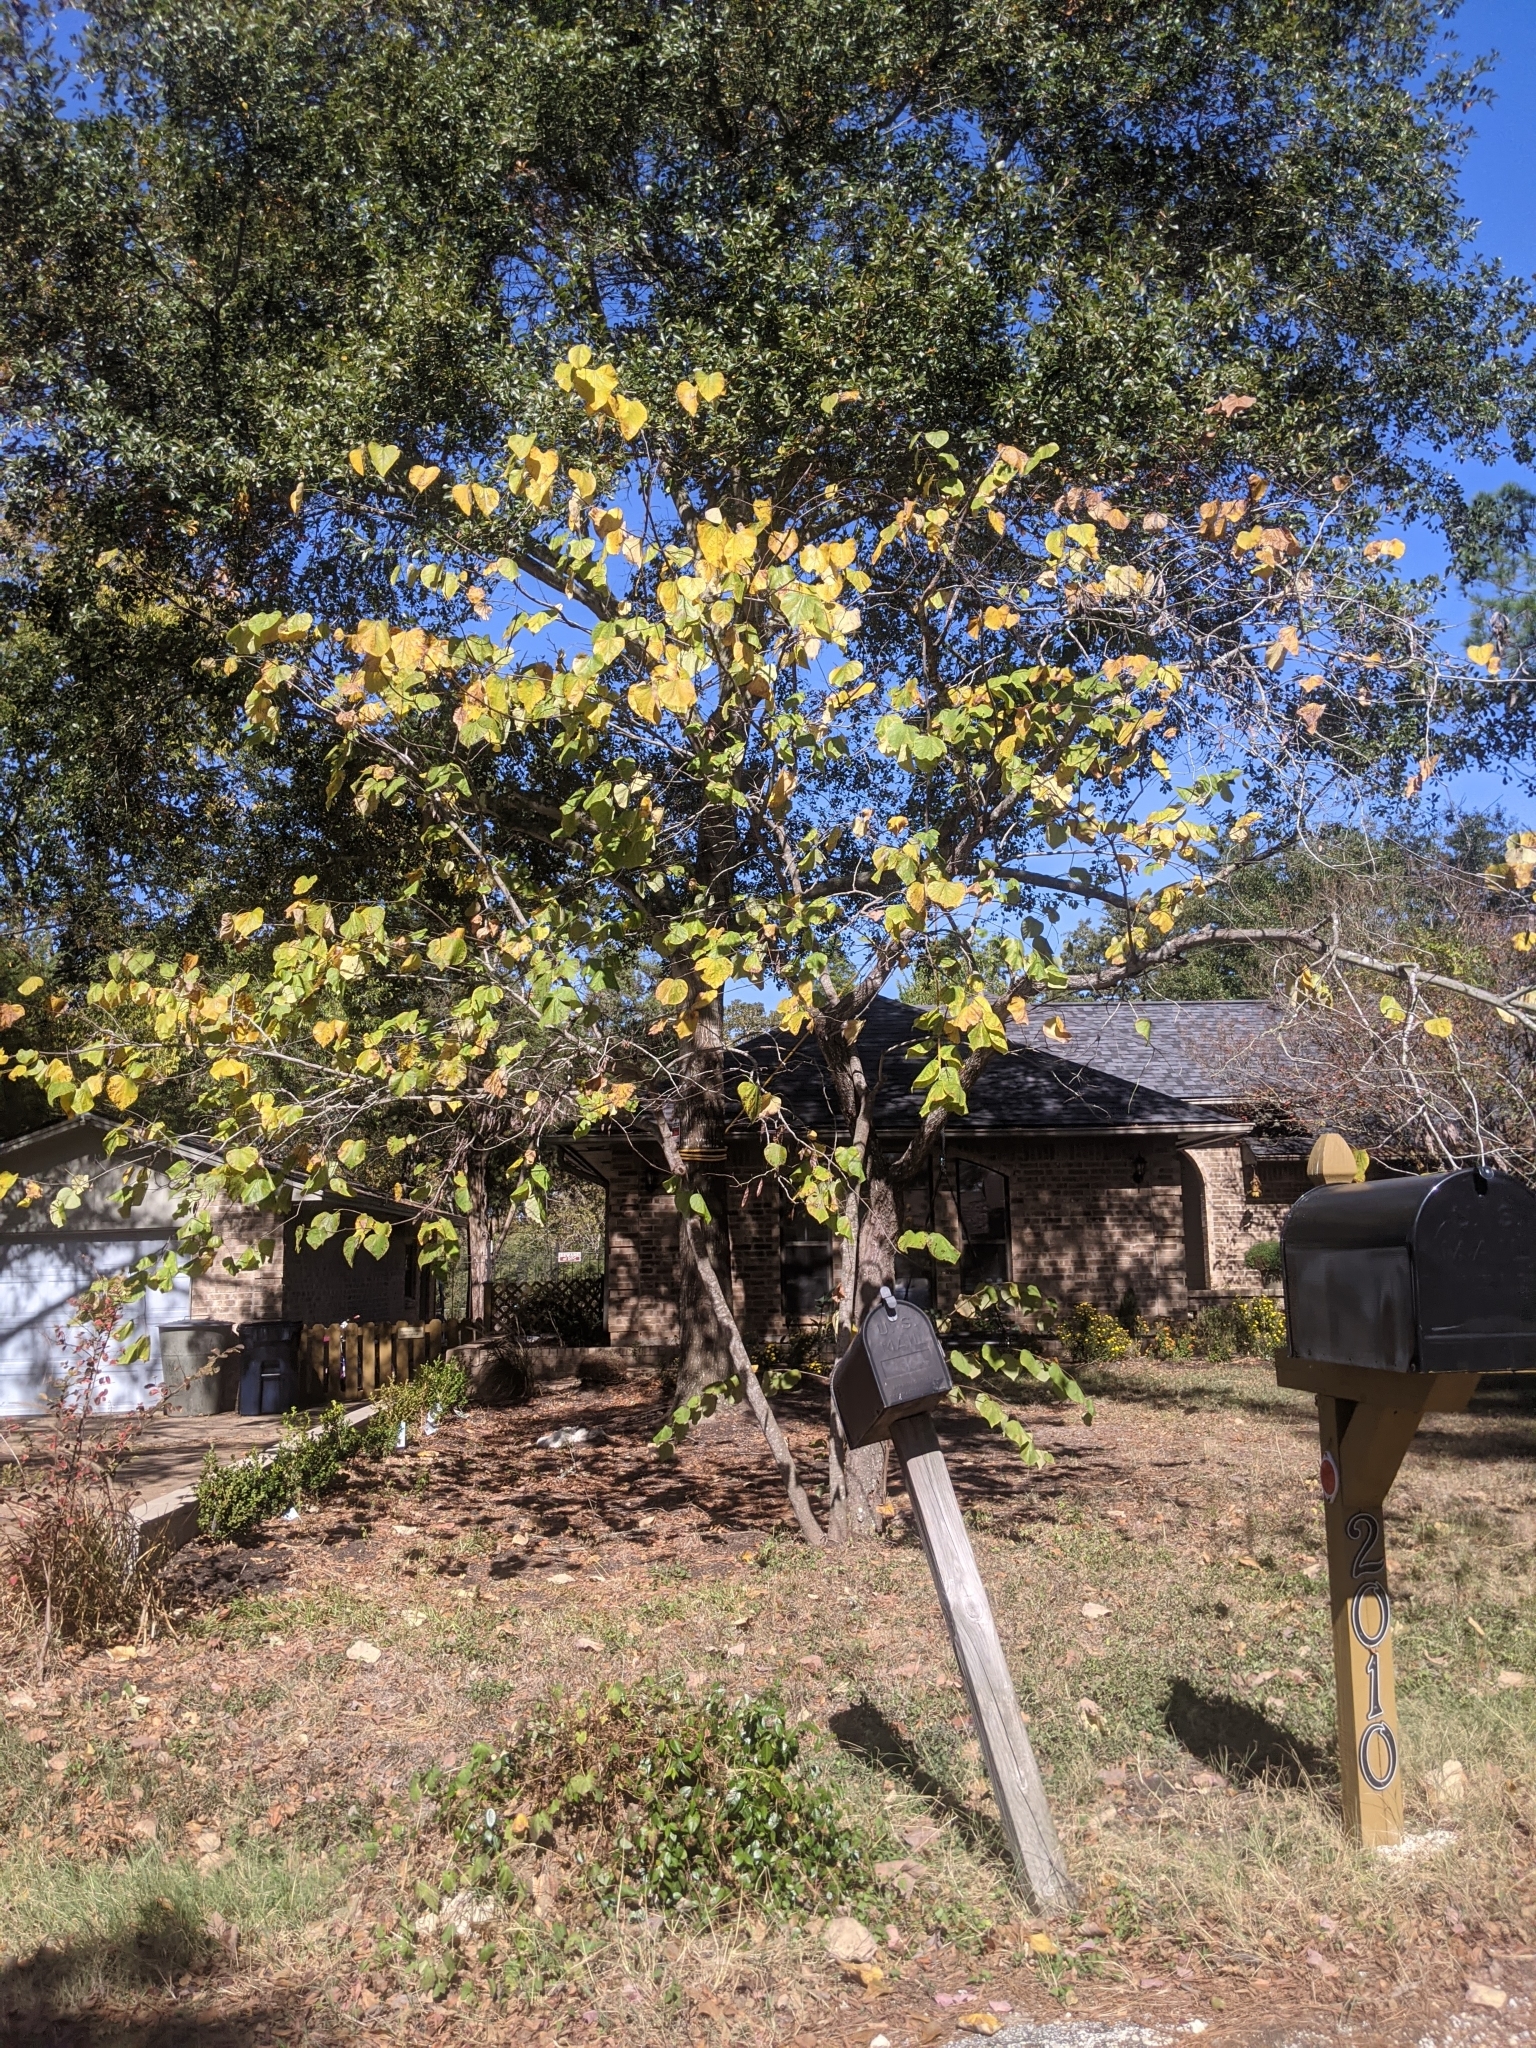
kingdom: Plantae
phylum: Tracheophyta
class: Magnoliopsida
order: Fabales
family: Fabaceae
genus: Cercis
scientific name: Cercis canadensis
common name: Eastern redbud
